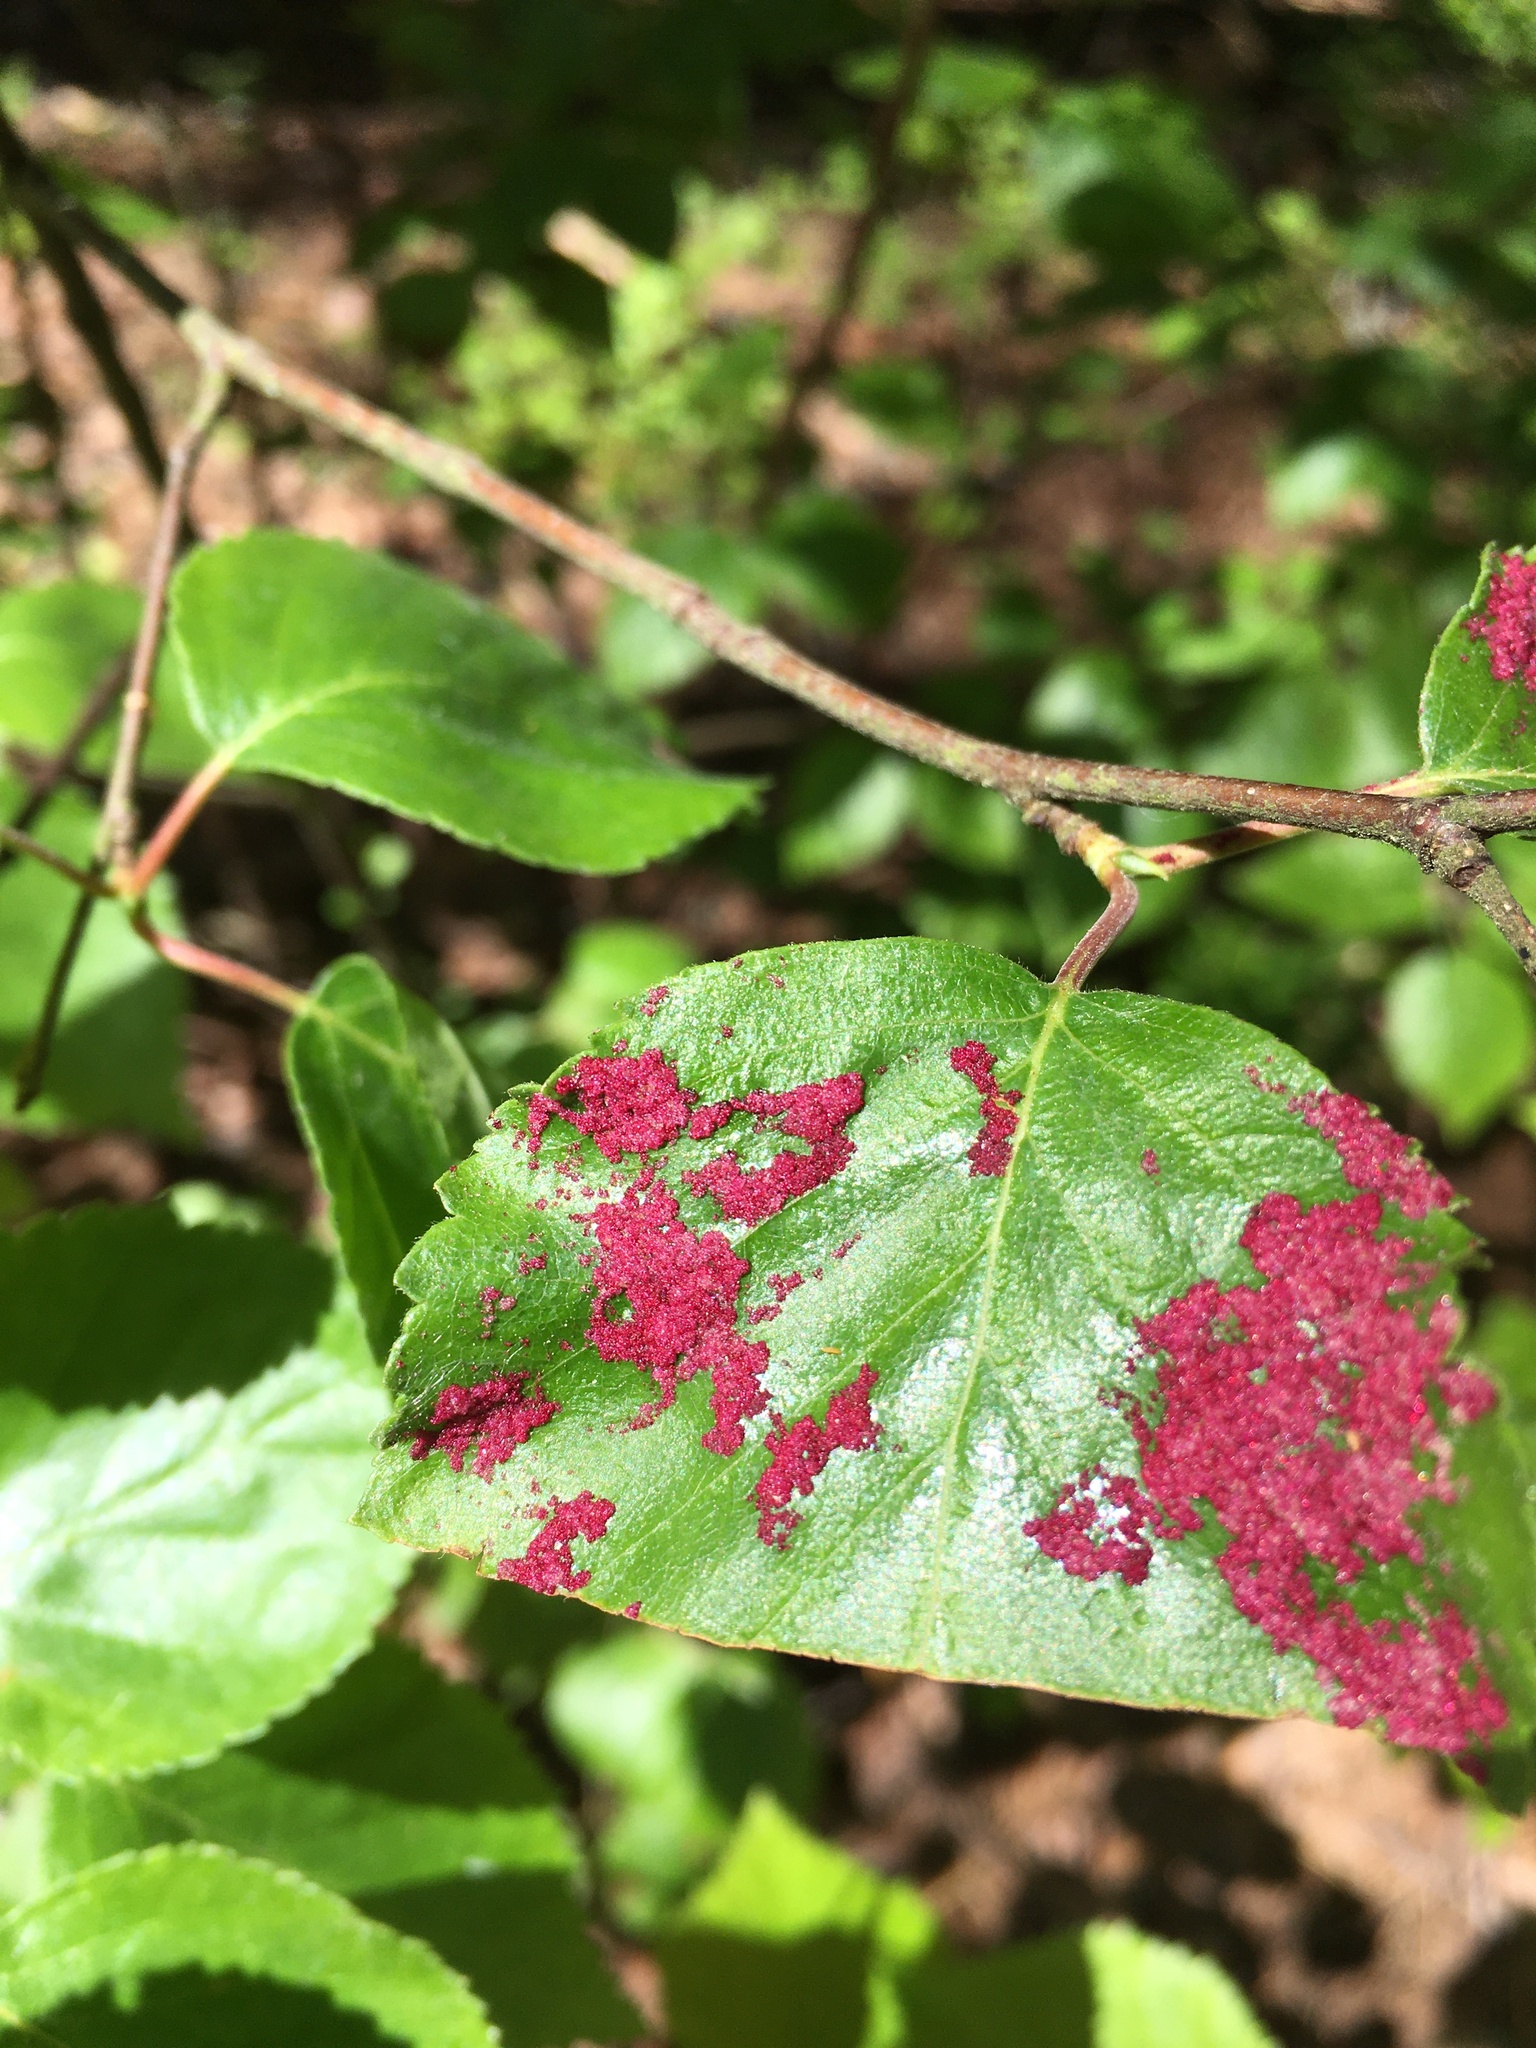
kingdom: Animalia
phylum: Arthropoda
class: Arachnida
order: Trombidiformes
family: Eriophyidae
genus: Acalitus
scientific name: Acalitus longisetosus
